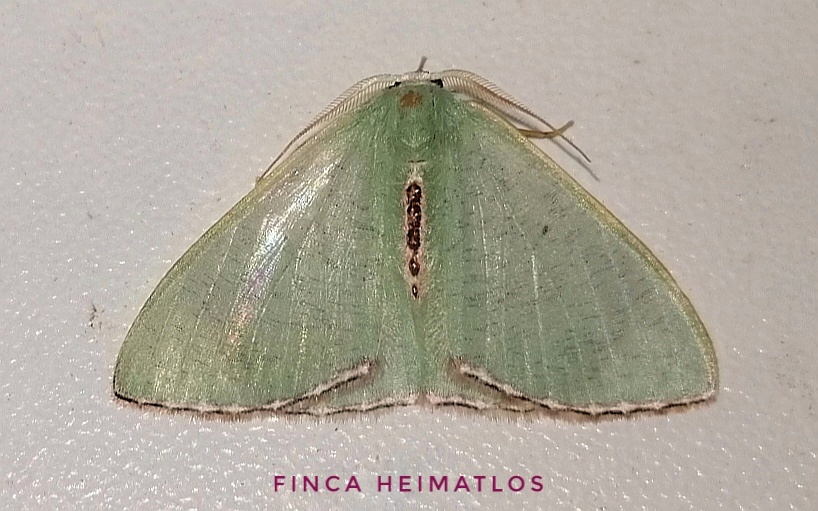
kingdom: Animalia
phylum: Arthropoda
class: Insecta
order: Lepidoptera
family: Geometridae
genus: Oospila
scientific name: Oospila confundaria
